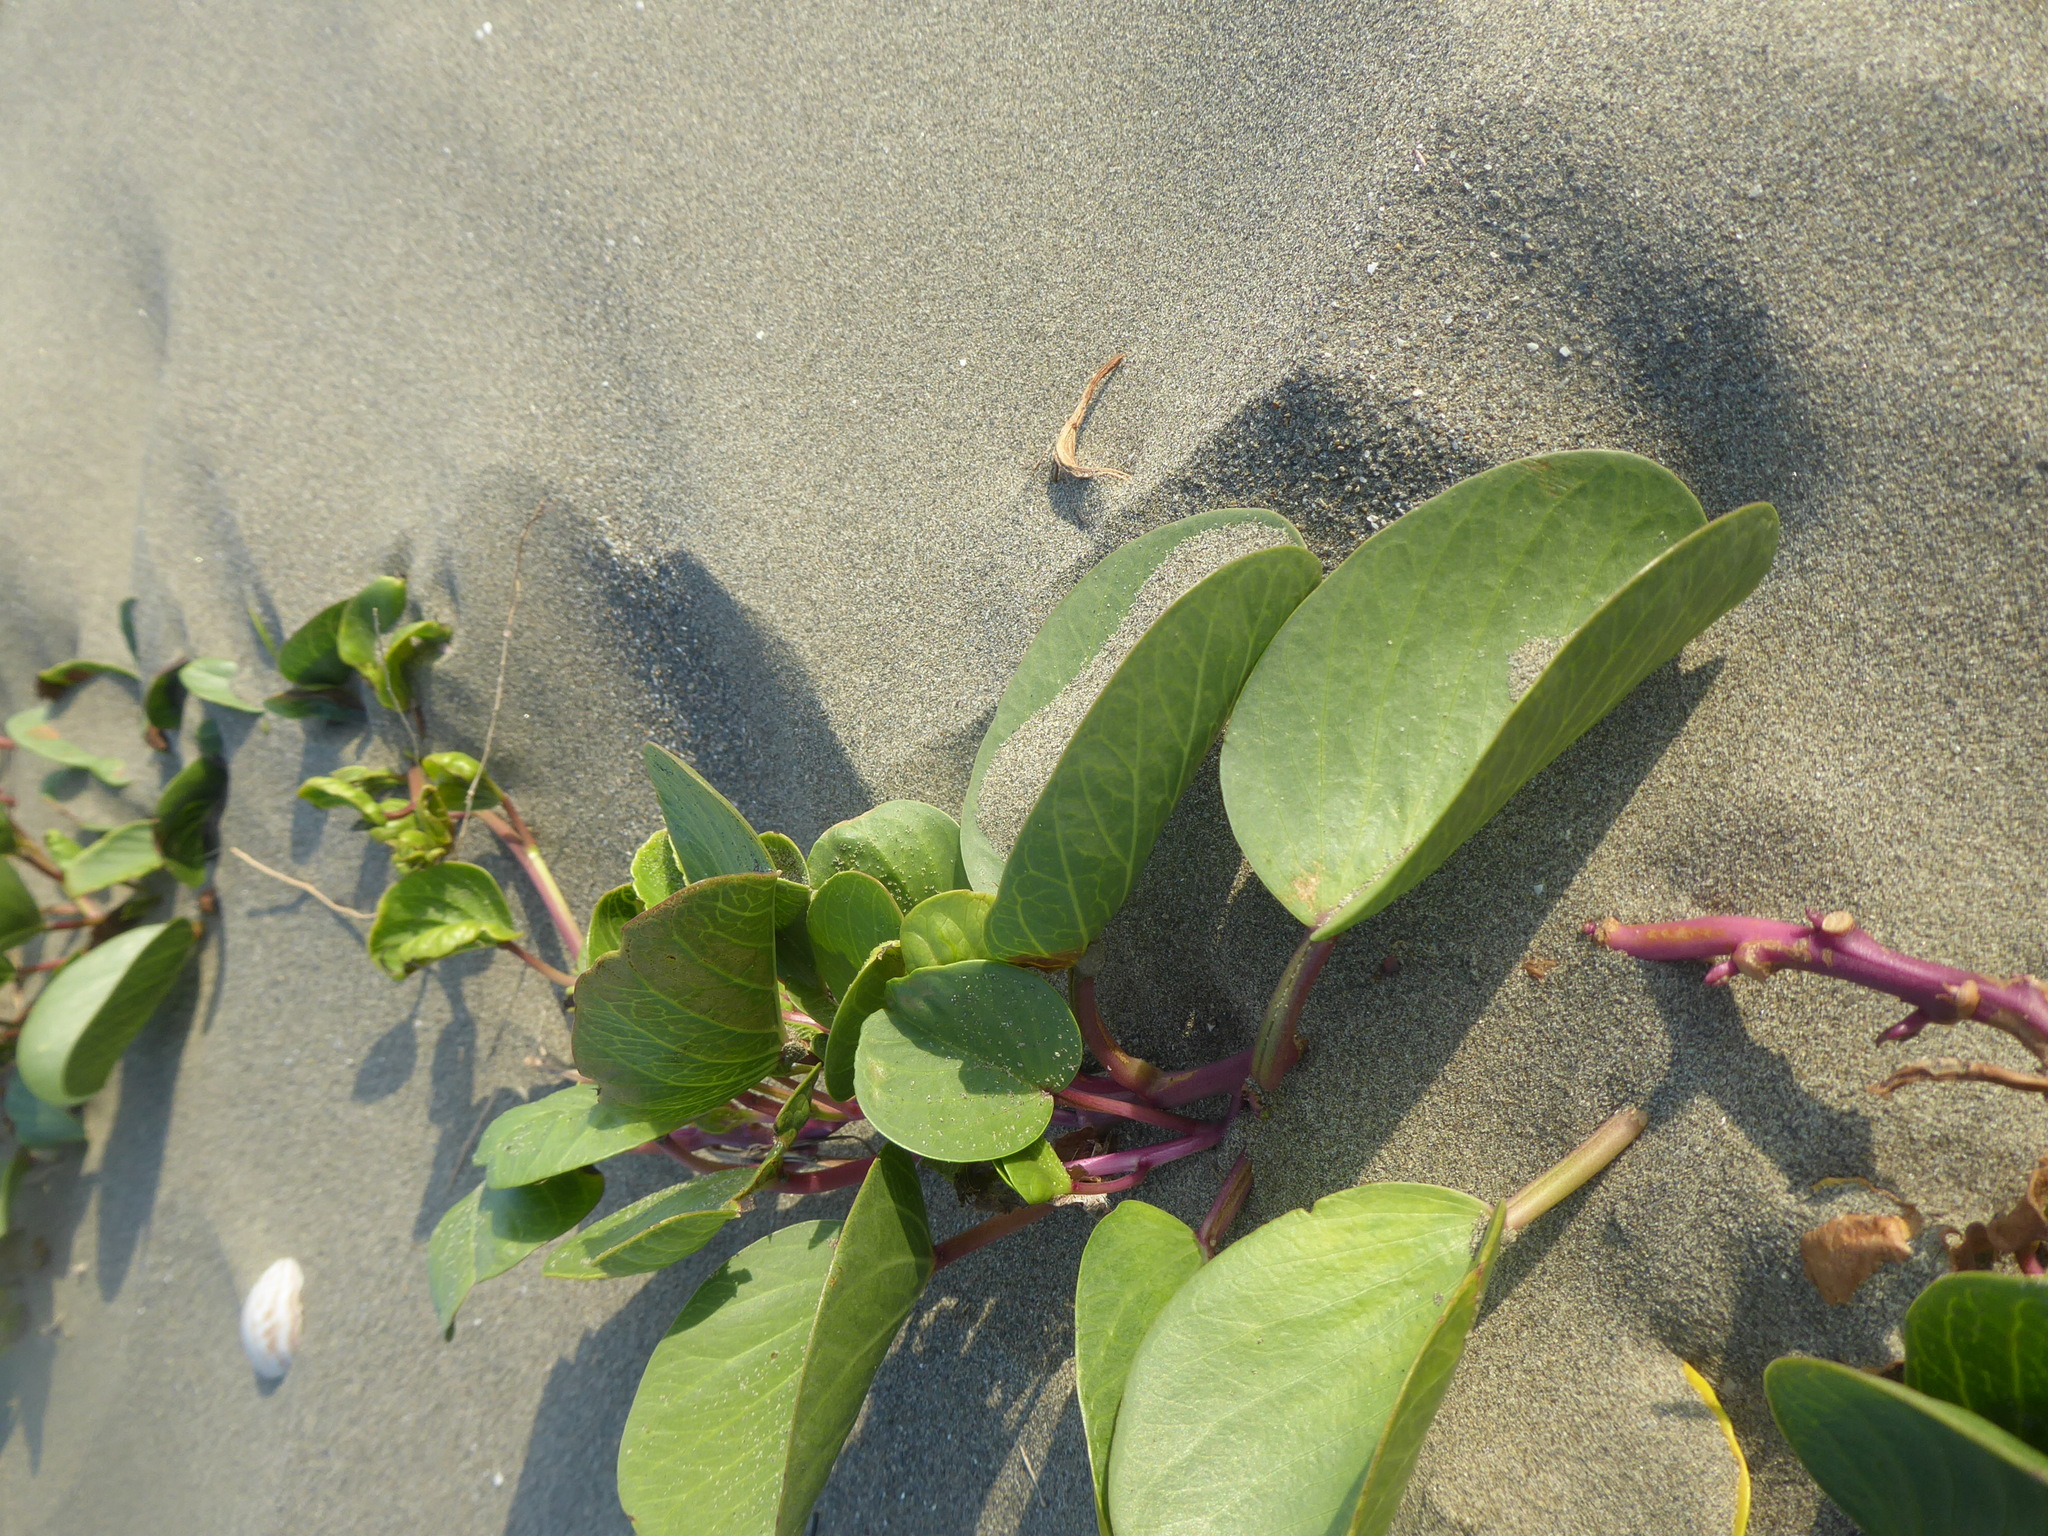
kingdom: Plantae
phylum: Tracheophyta
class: Magnoliopsida
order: Solanales
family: Convolvulaceae
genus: Ipomoea
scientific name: Ipomoea pes-caprae
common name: Beach morning glory
